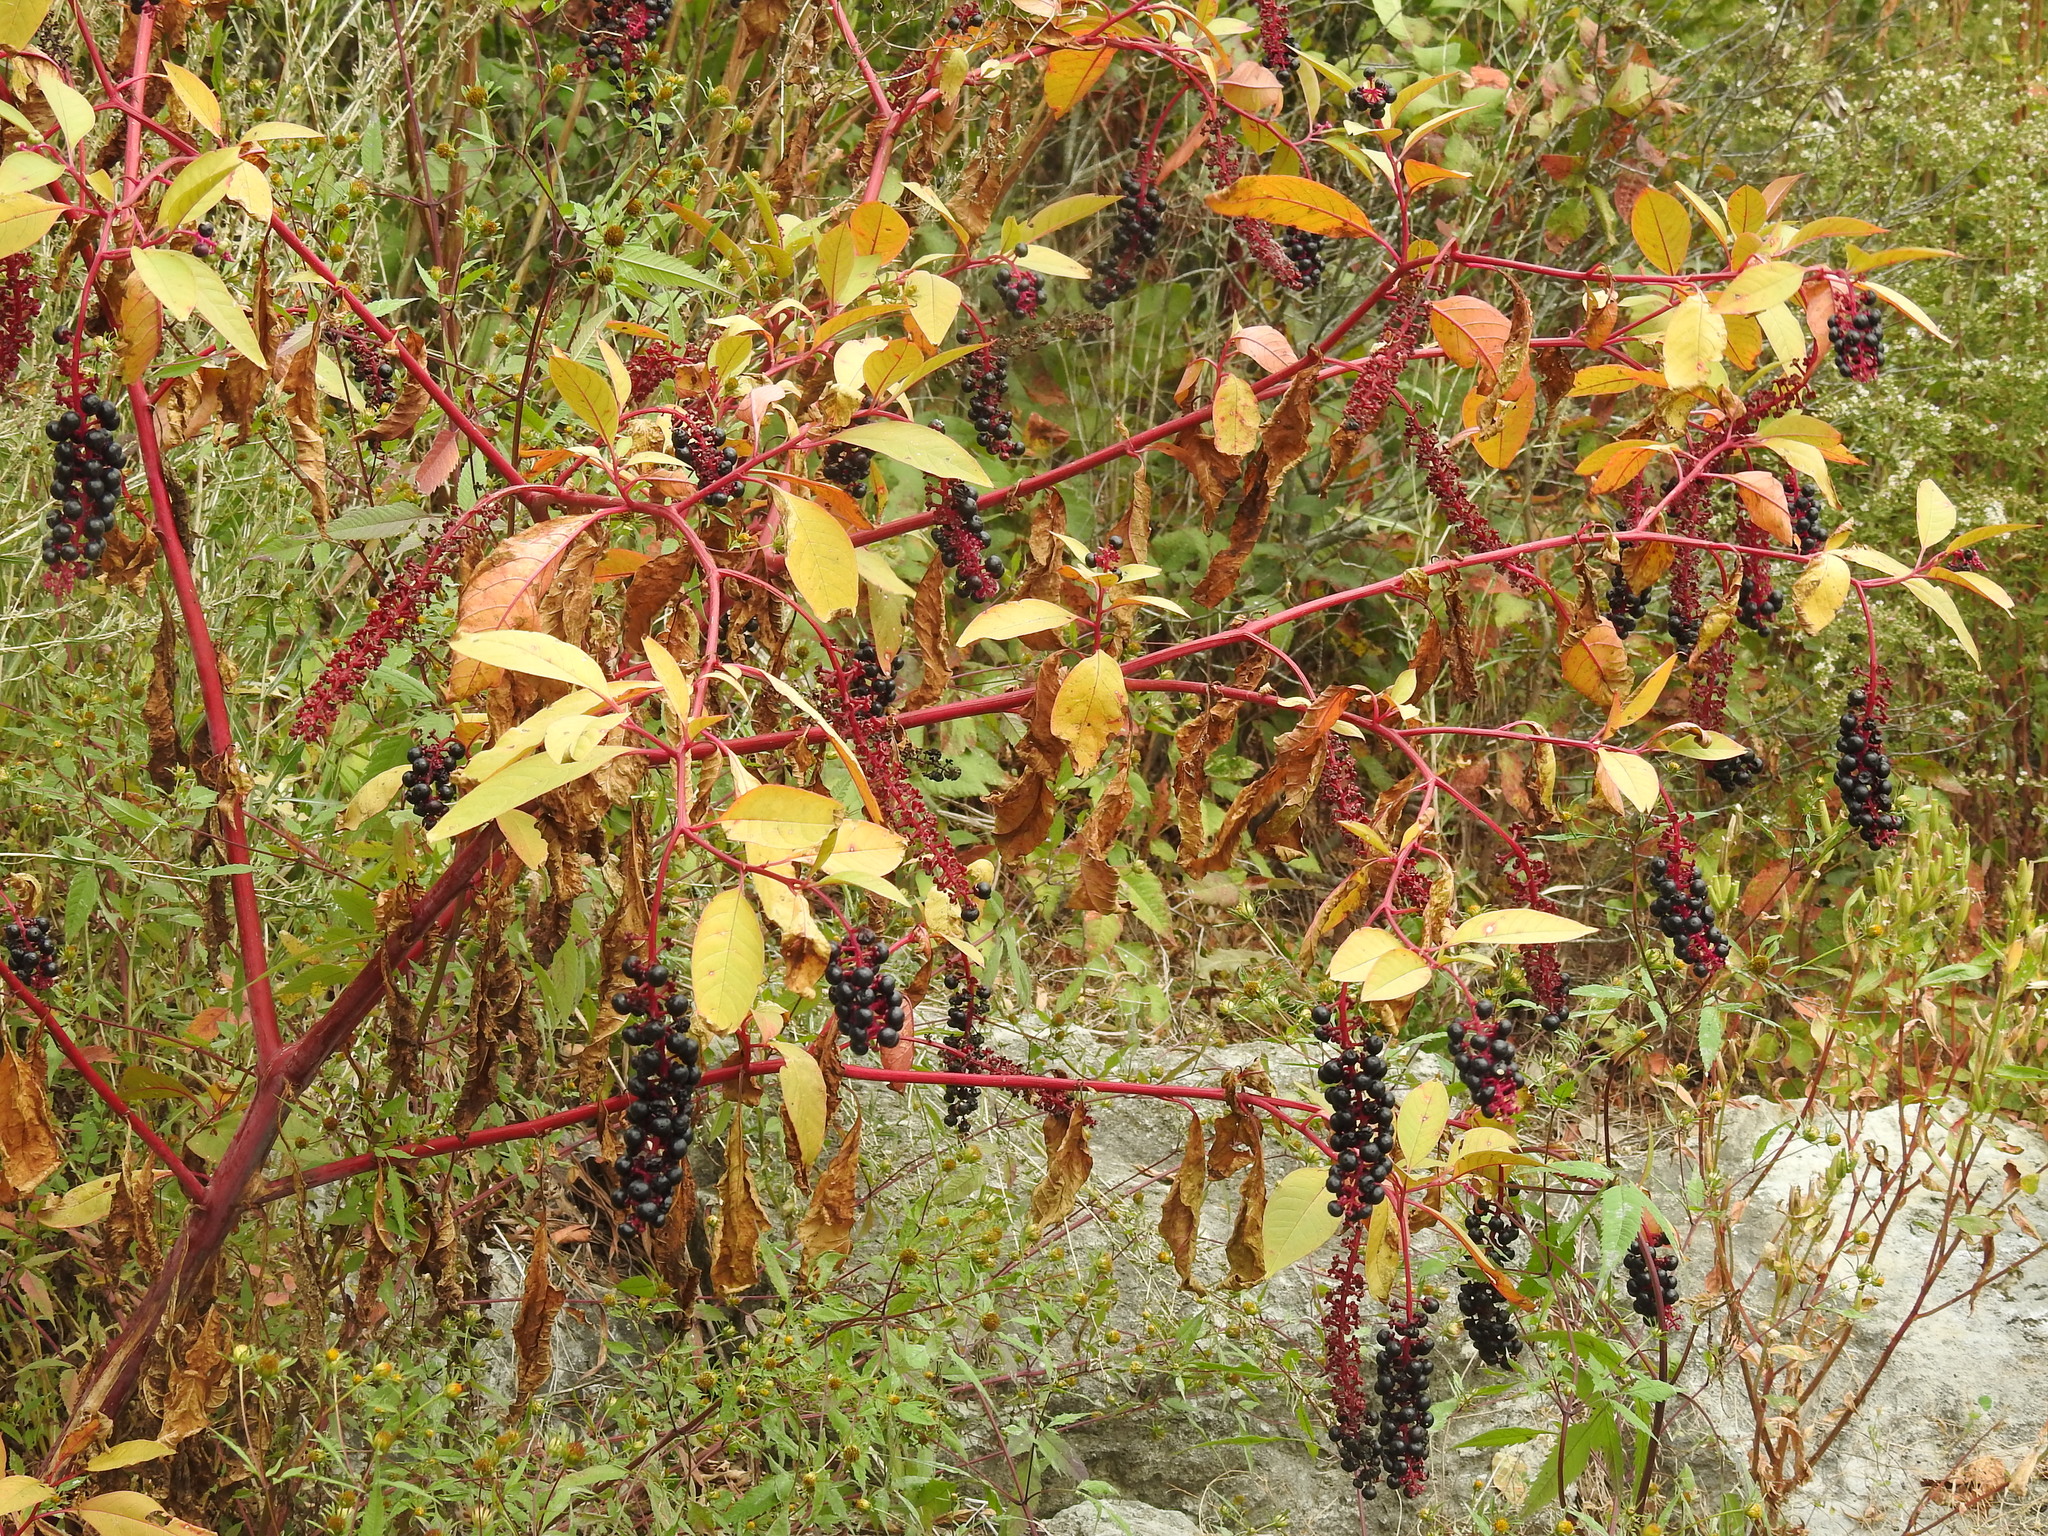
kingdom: Plantae
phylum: Tracheophyta
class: Magnoliopsida
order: Caryophyllales
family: Phytolaccaceae
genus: Phytolacca
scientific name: Phytolacca americana
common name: American pokeweed
